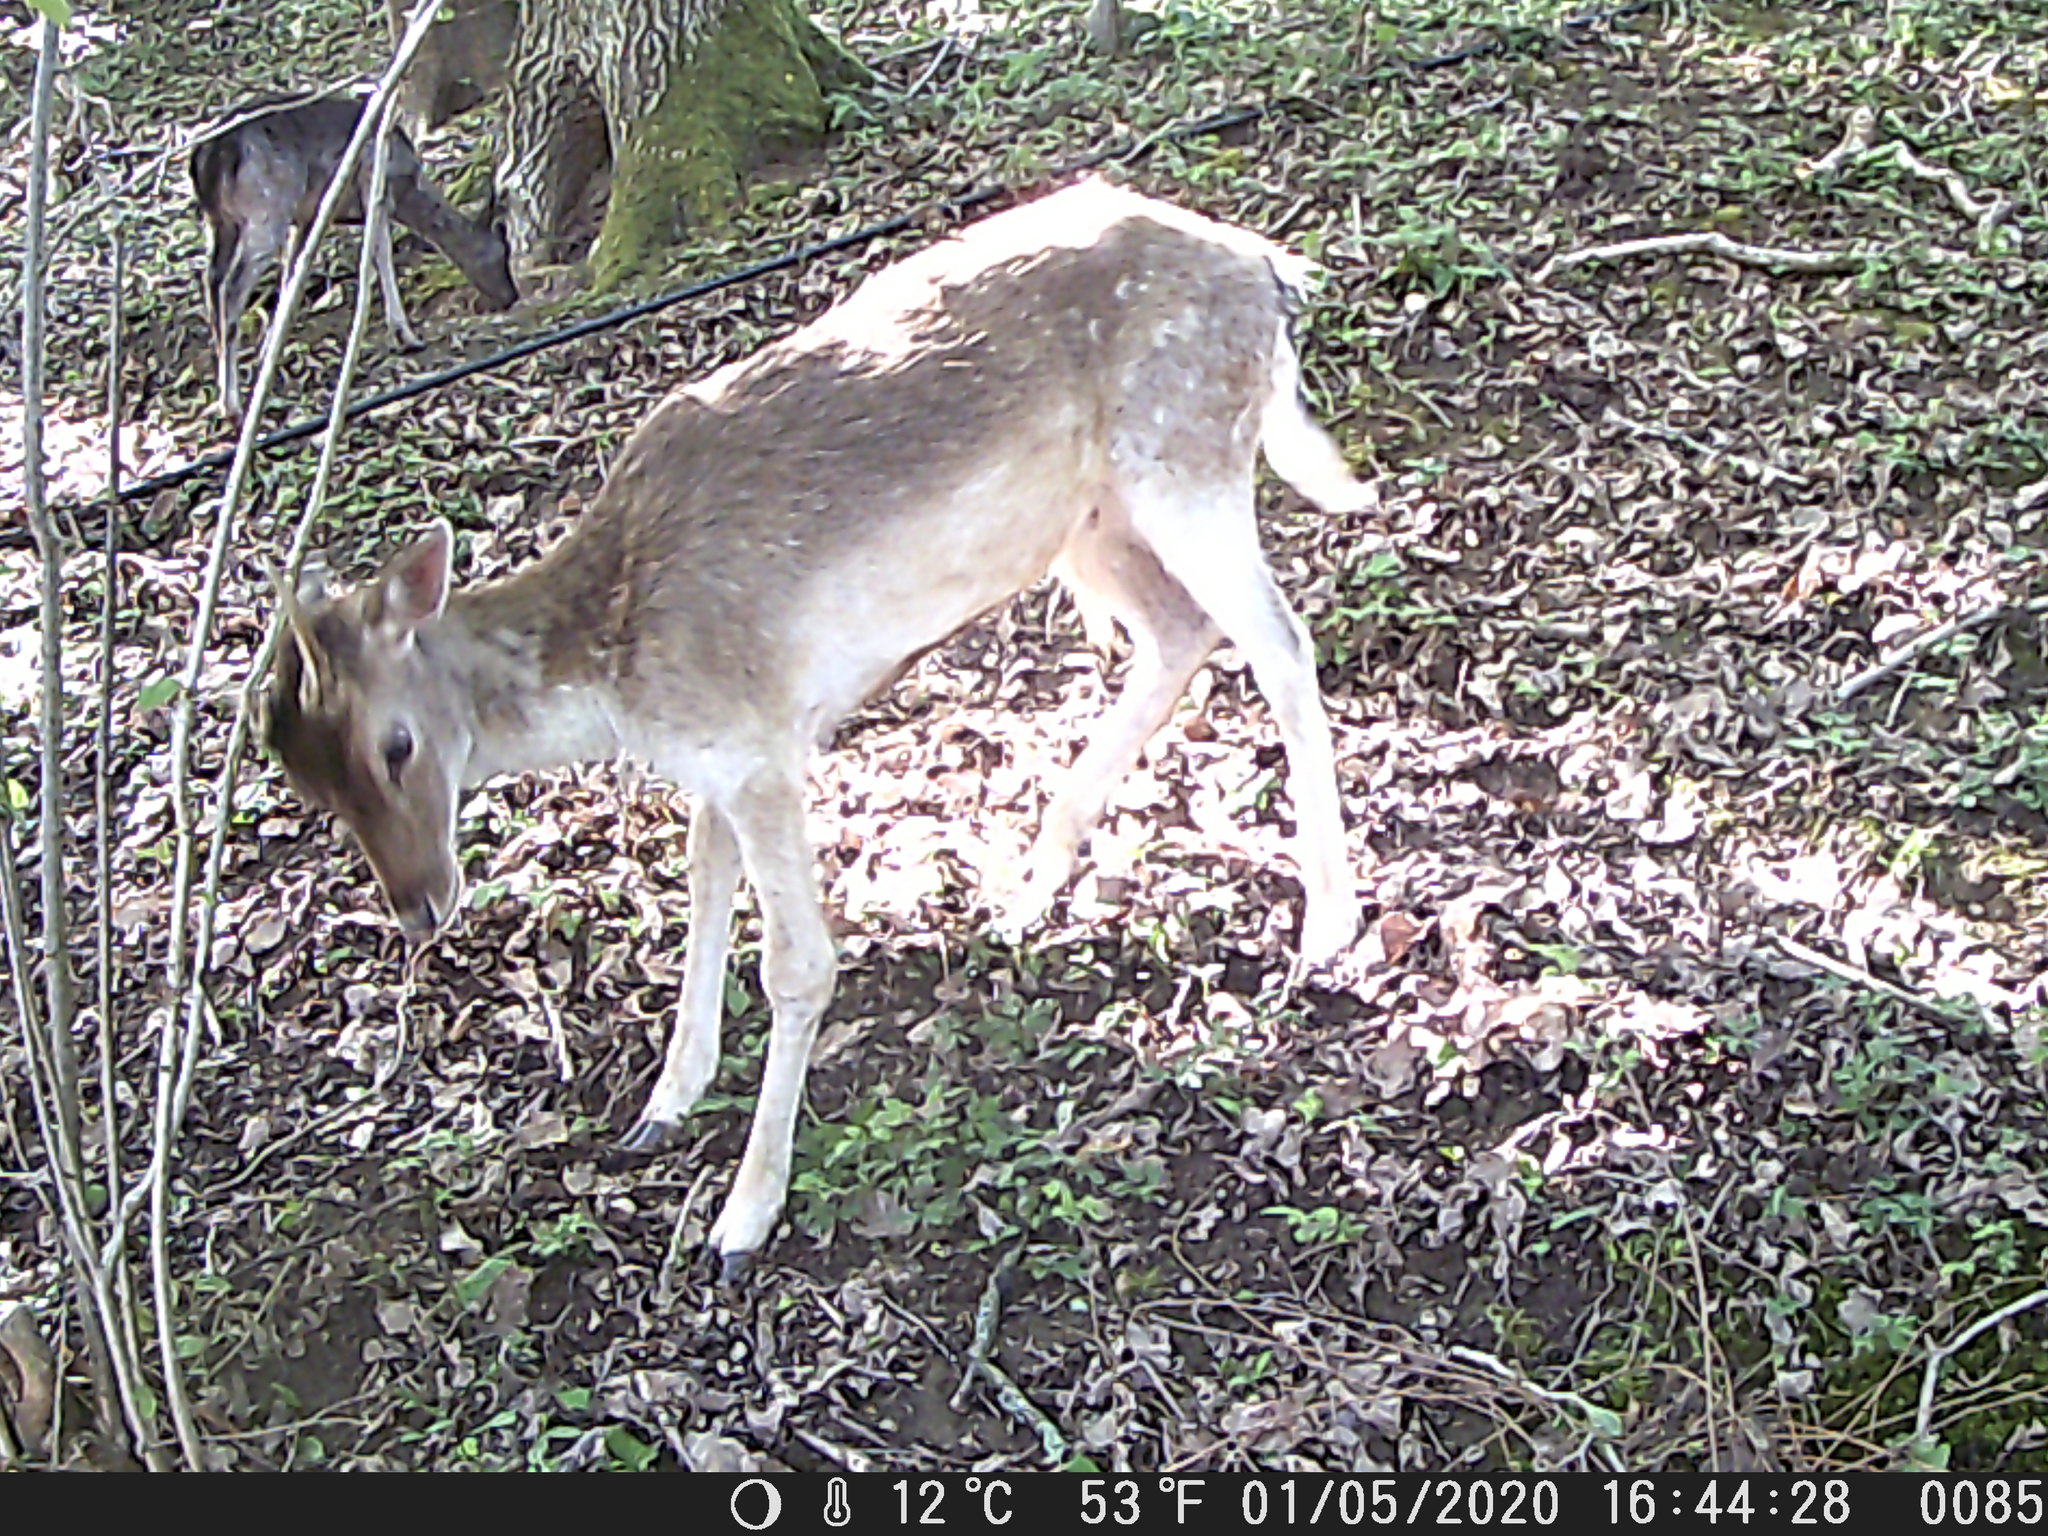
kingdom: Animalia
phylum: Chordata
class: Mammalia
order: Artiodactyla
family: Cervidae
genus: Dama
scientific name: Dama dama
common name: Fallow deer
